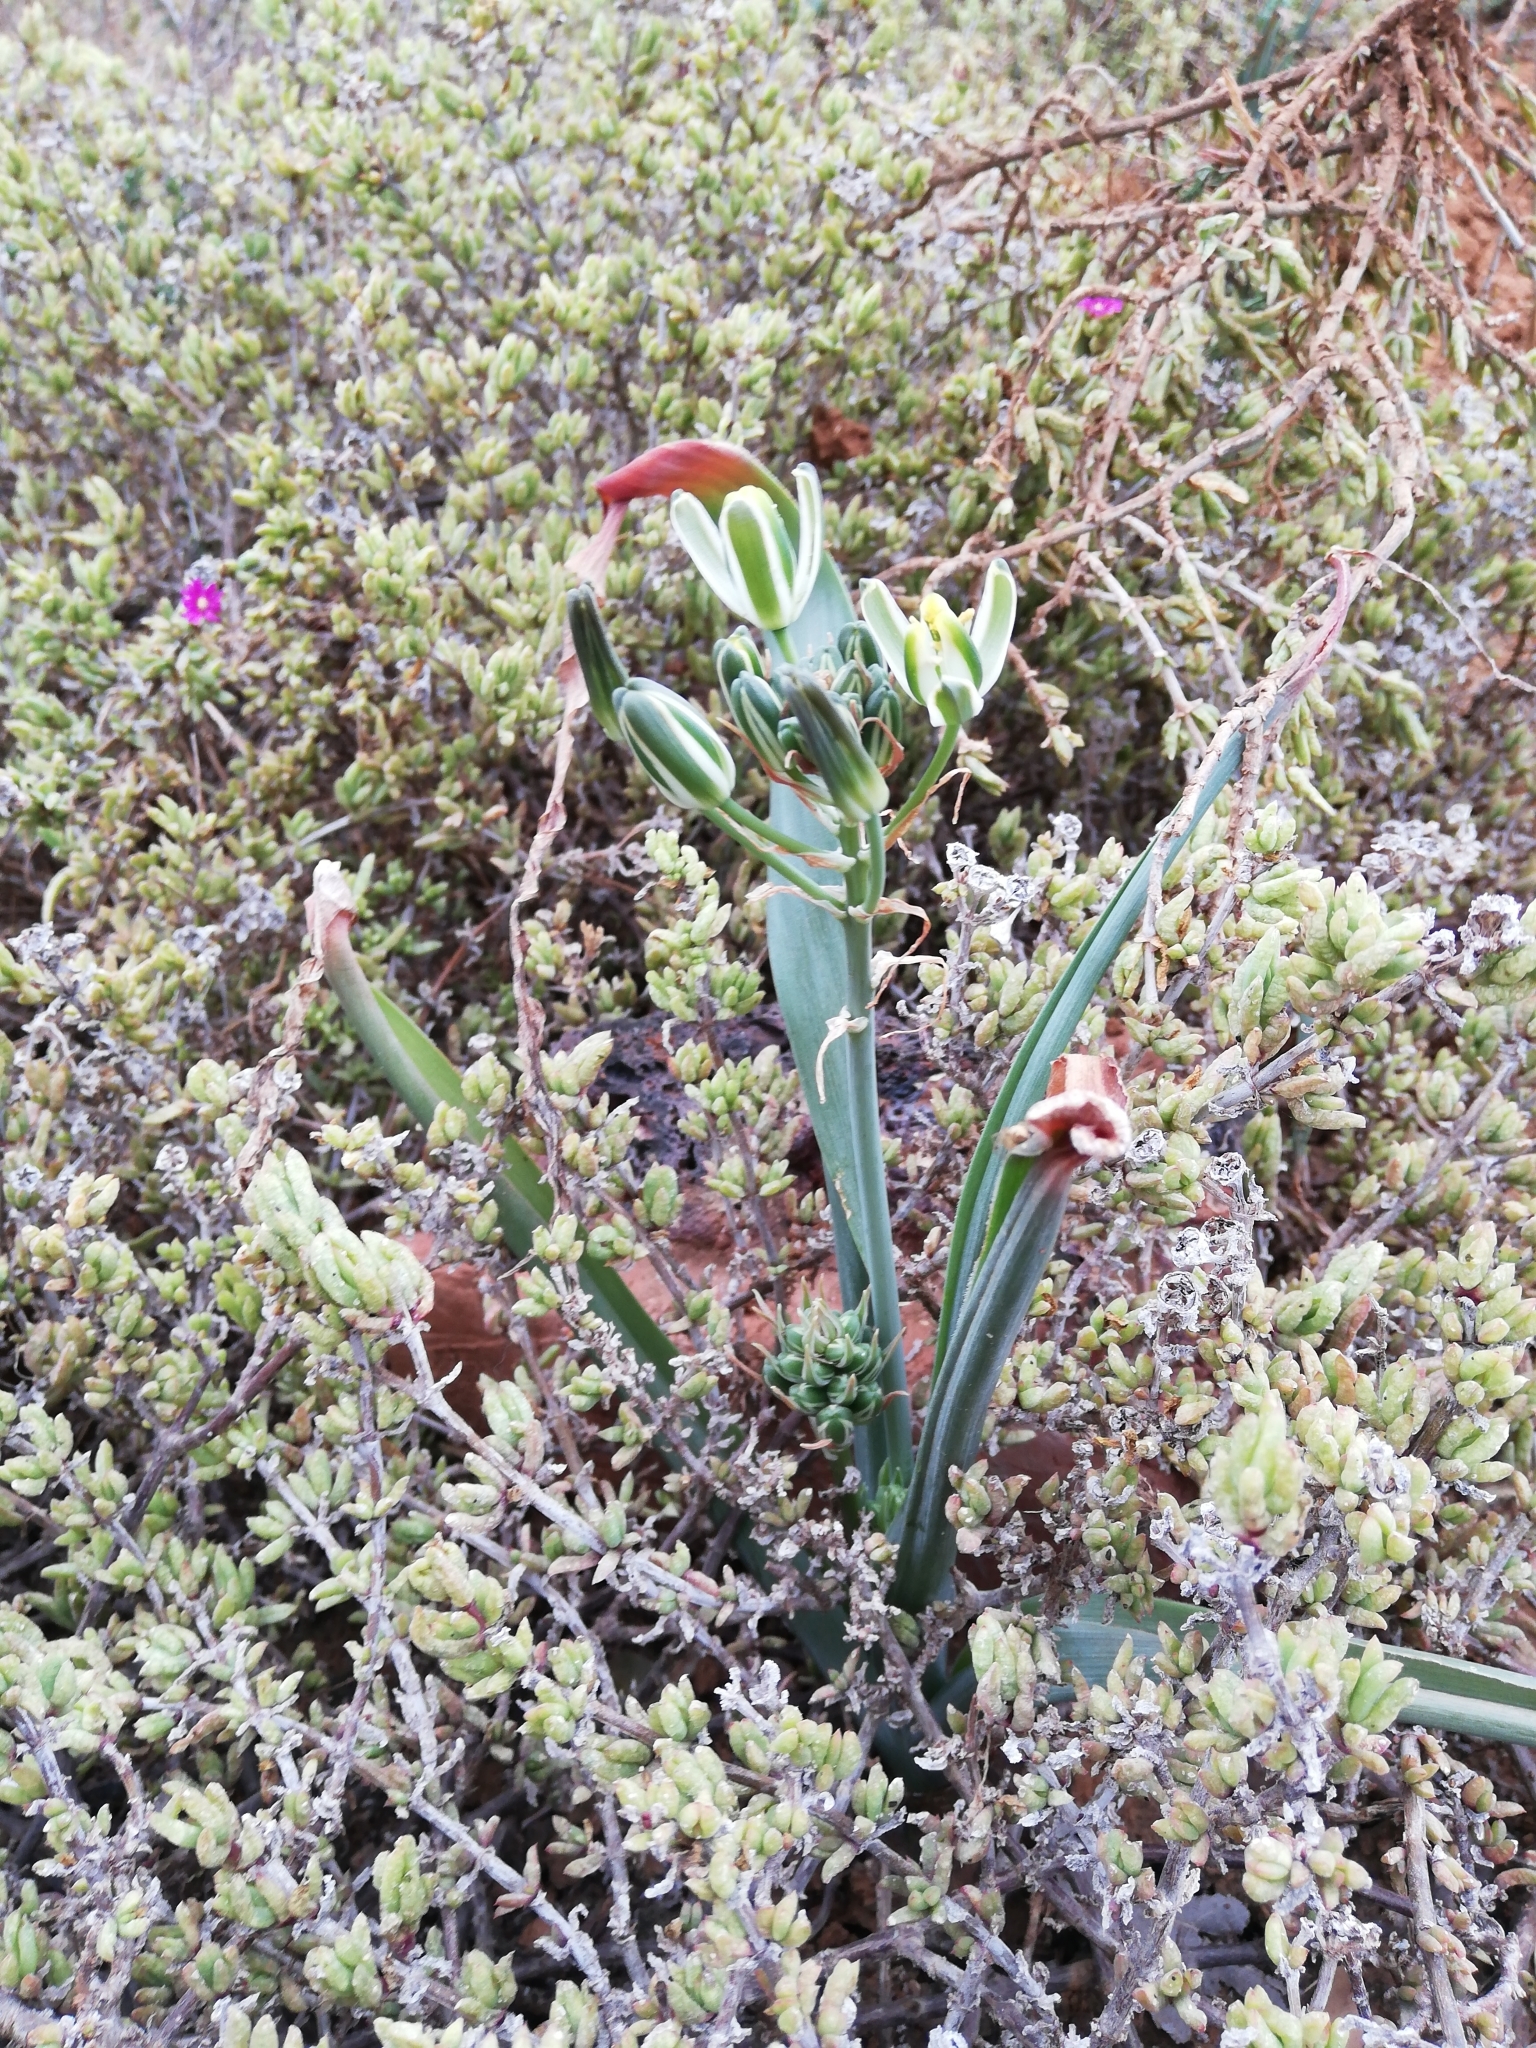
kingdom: Plantae
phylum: Tracheophyta
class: Liliopsida
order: Asparagales
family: Asparagaceae
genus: Albuca
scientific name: Albuca setosa
